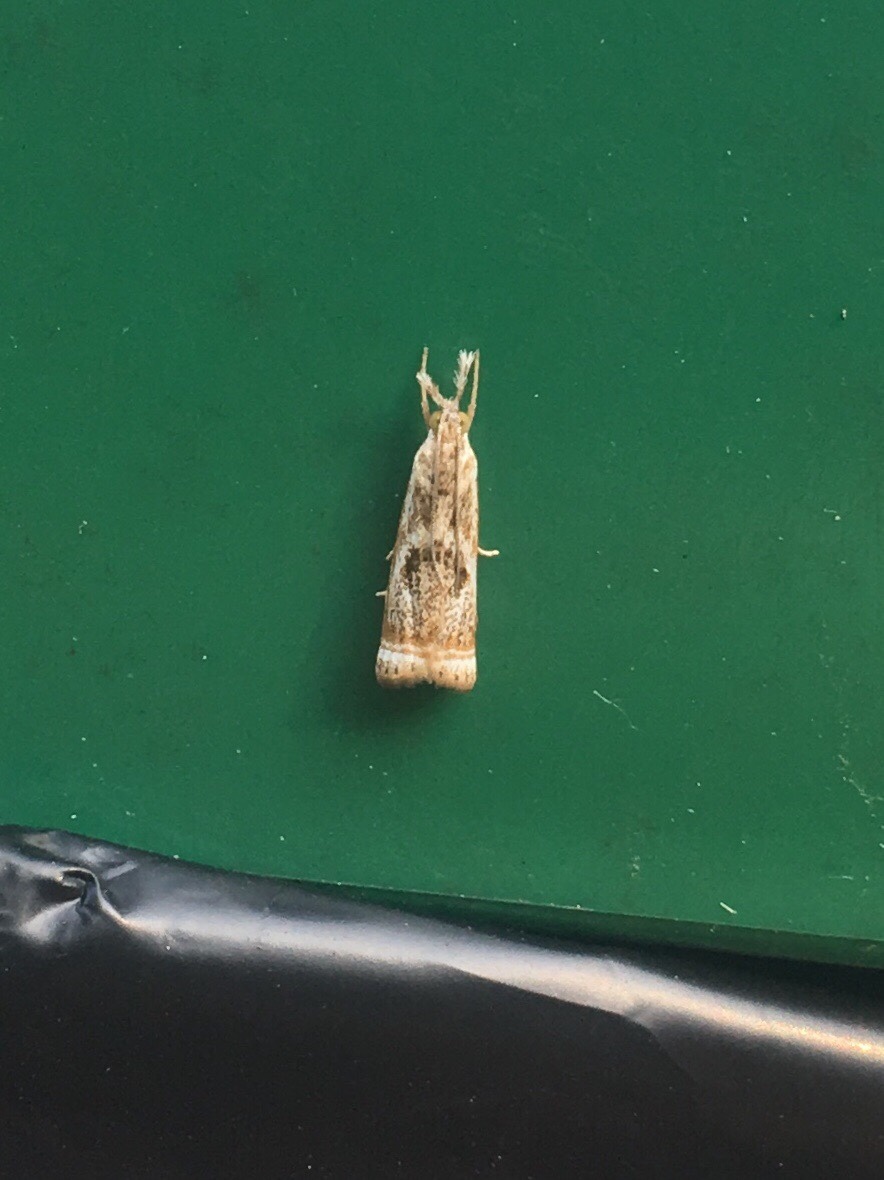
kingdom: Animalia
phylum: Arthropoda
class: Insecta
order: Lepidoptera
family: Crambidae
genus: Microcrambus
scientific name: Microcrambus elegans
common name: Elegant grass-veneer
